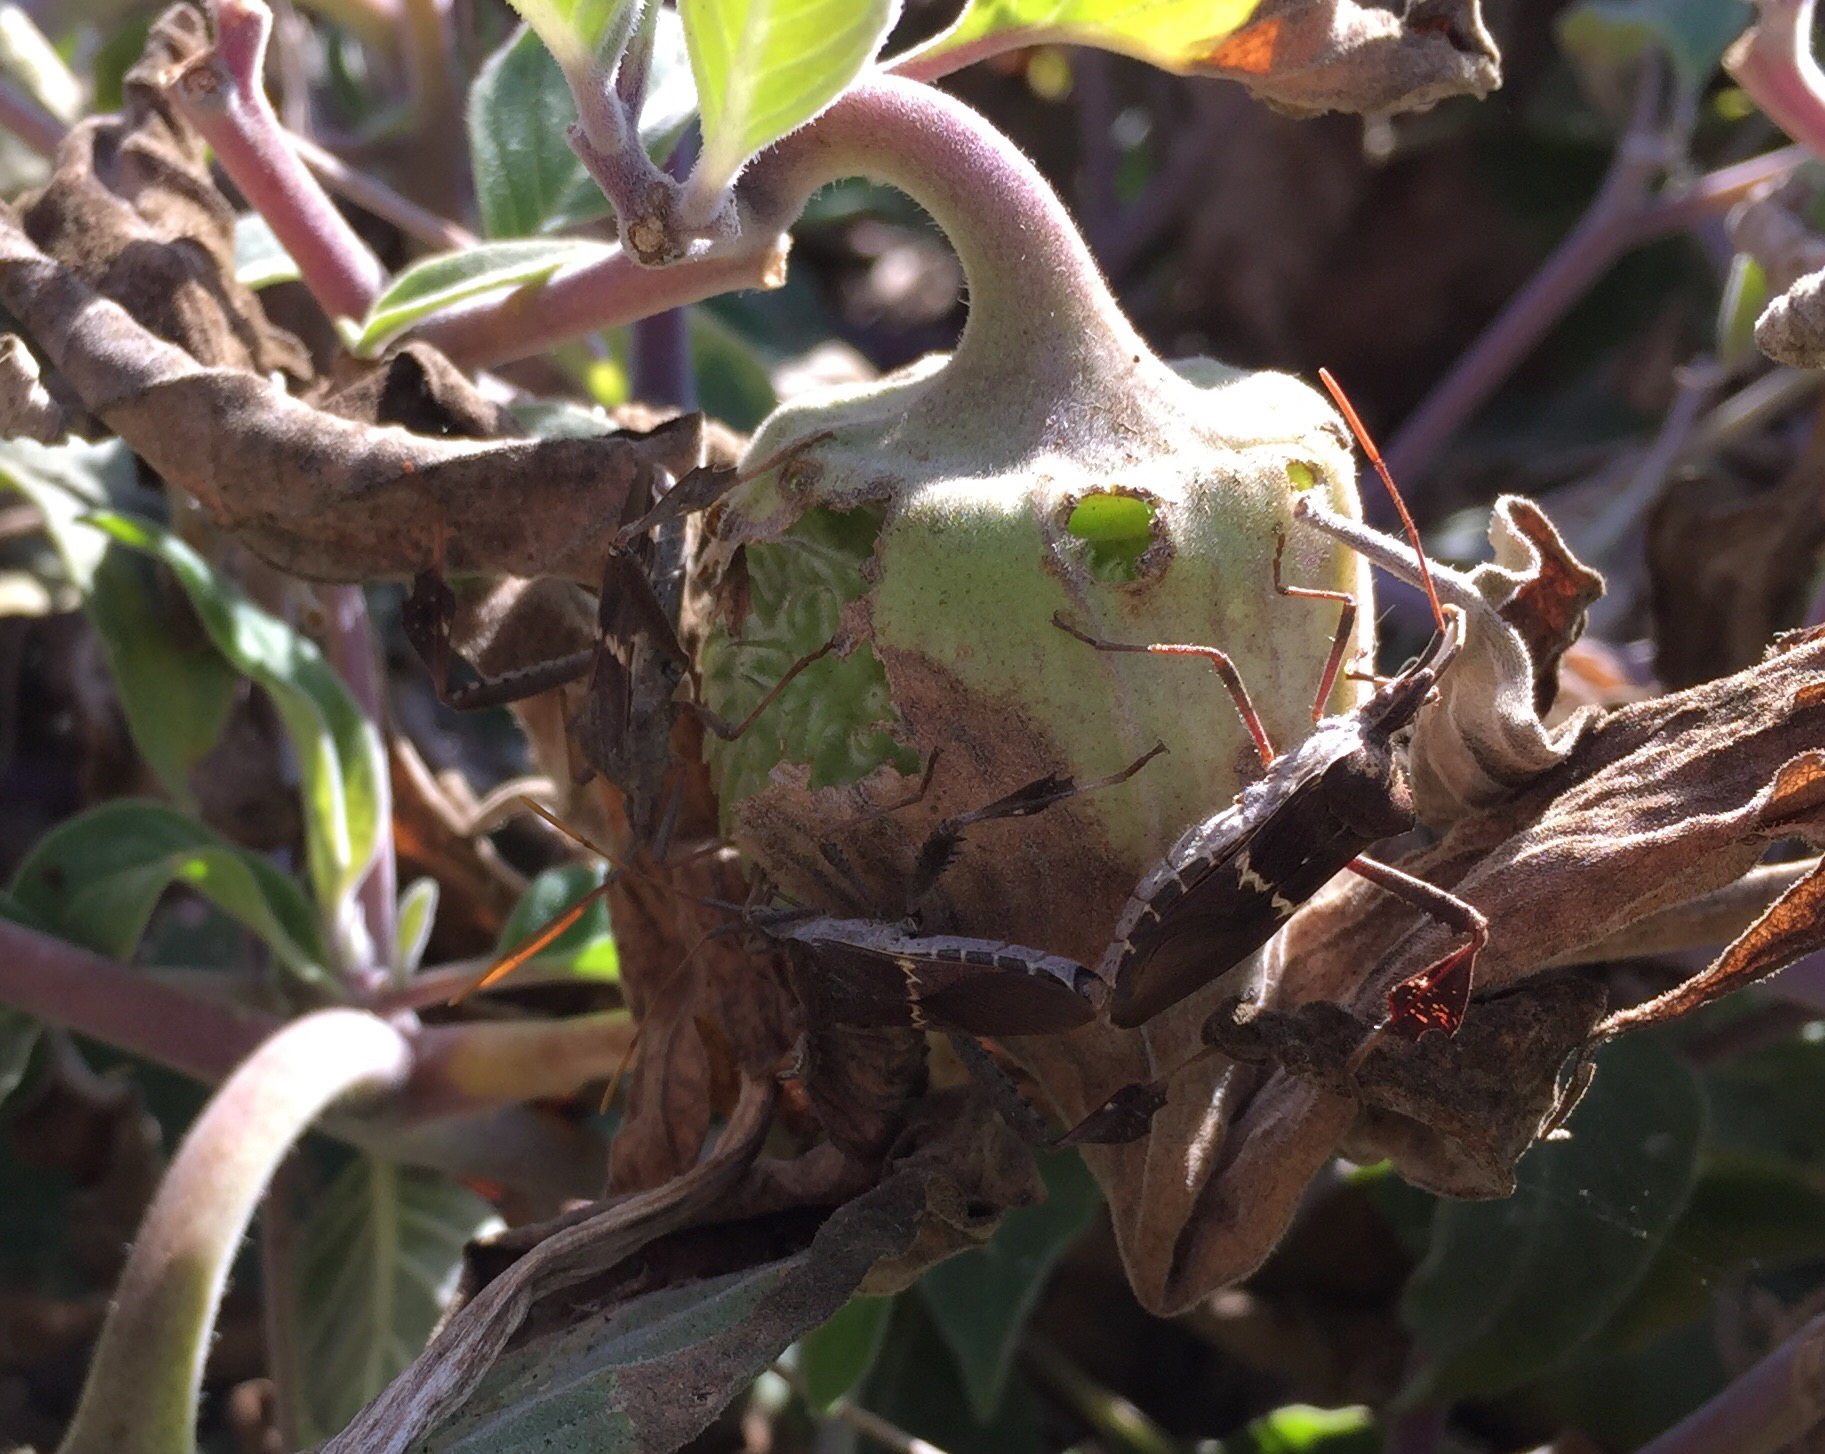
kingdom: Animalia
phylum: Arthropoda
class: Insecta
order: Hemiptera
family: Coreidae
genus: Leptoglossus
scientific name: Leptoglossus zonatus
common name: Large-legged bug
